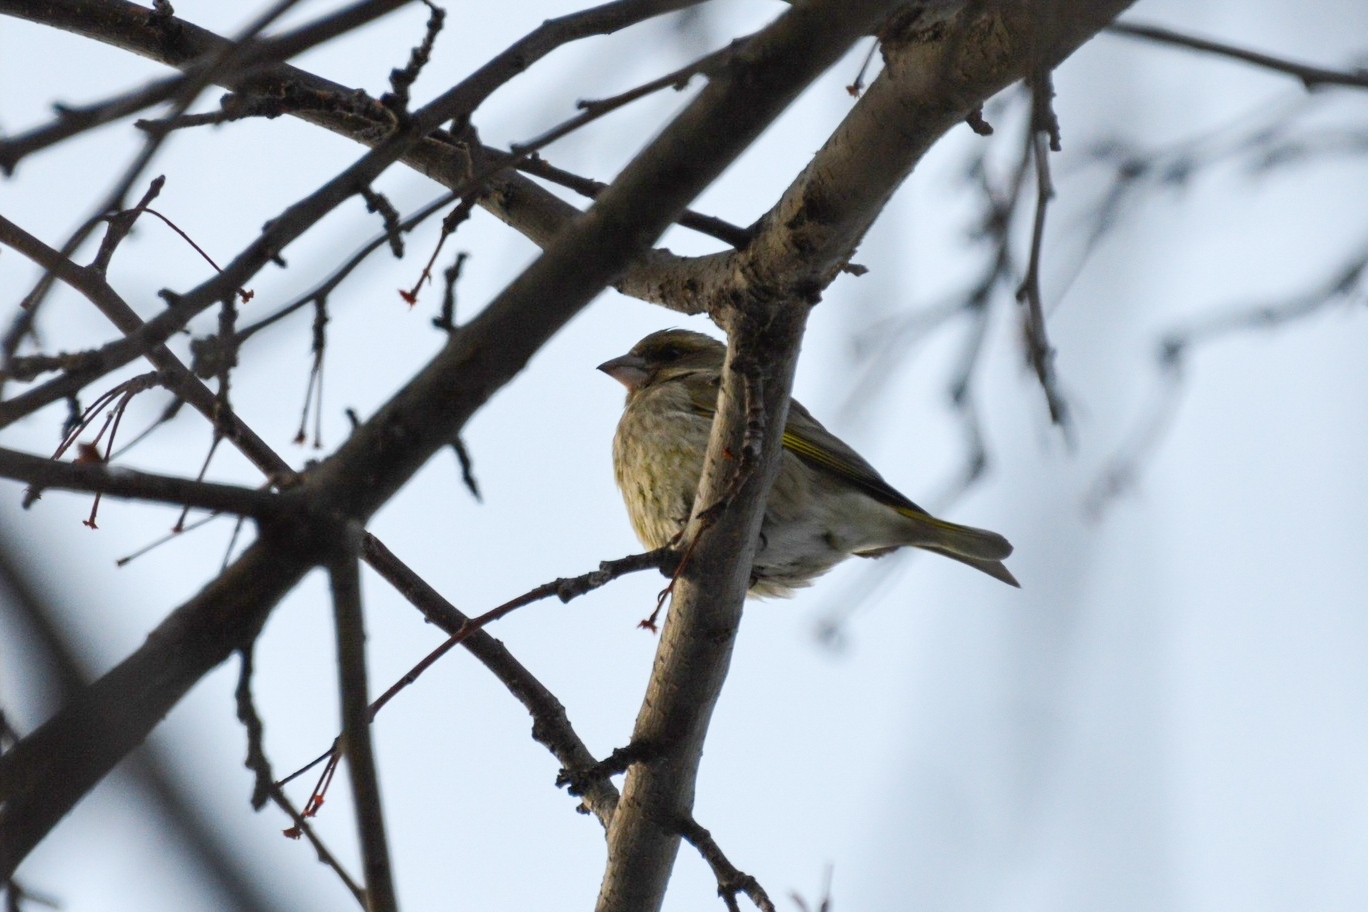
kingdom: Plantae
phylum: Tracheophyta
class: Liliopsida
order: Poales
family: Poaceae
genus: Chloris
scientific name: Chloris chloris
